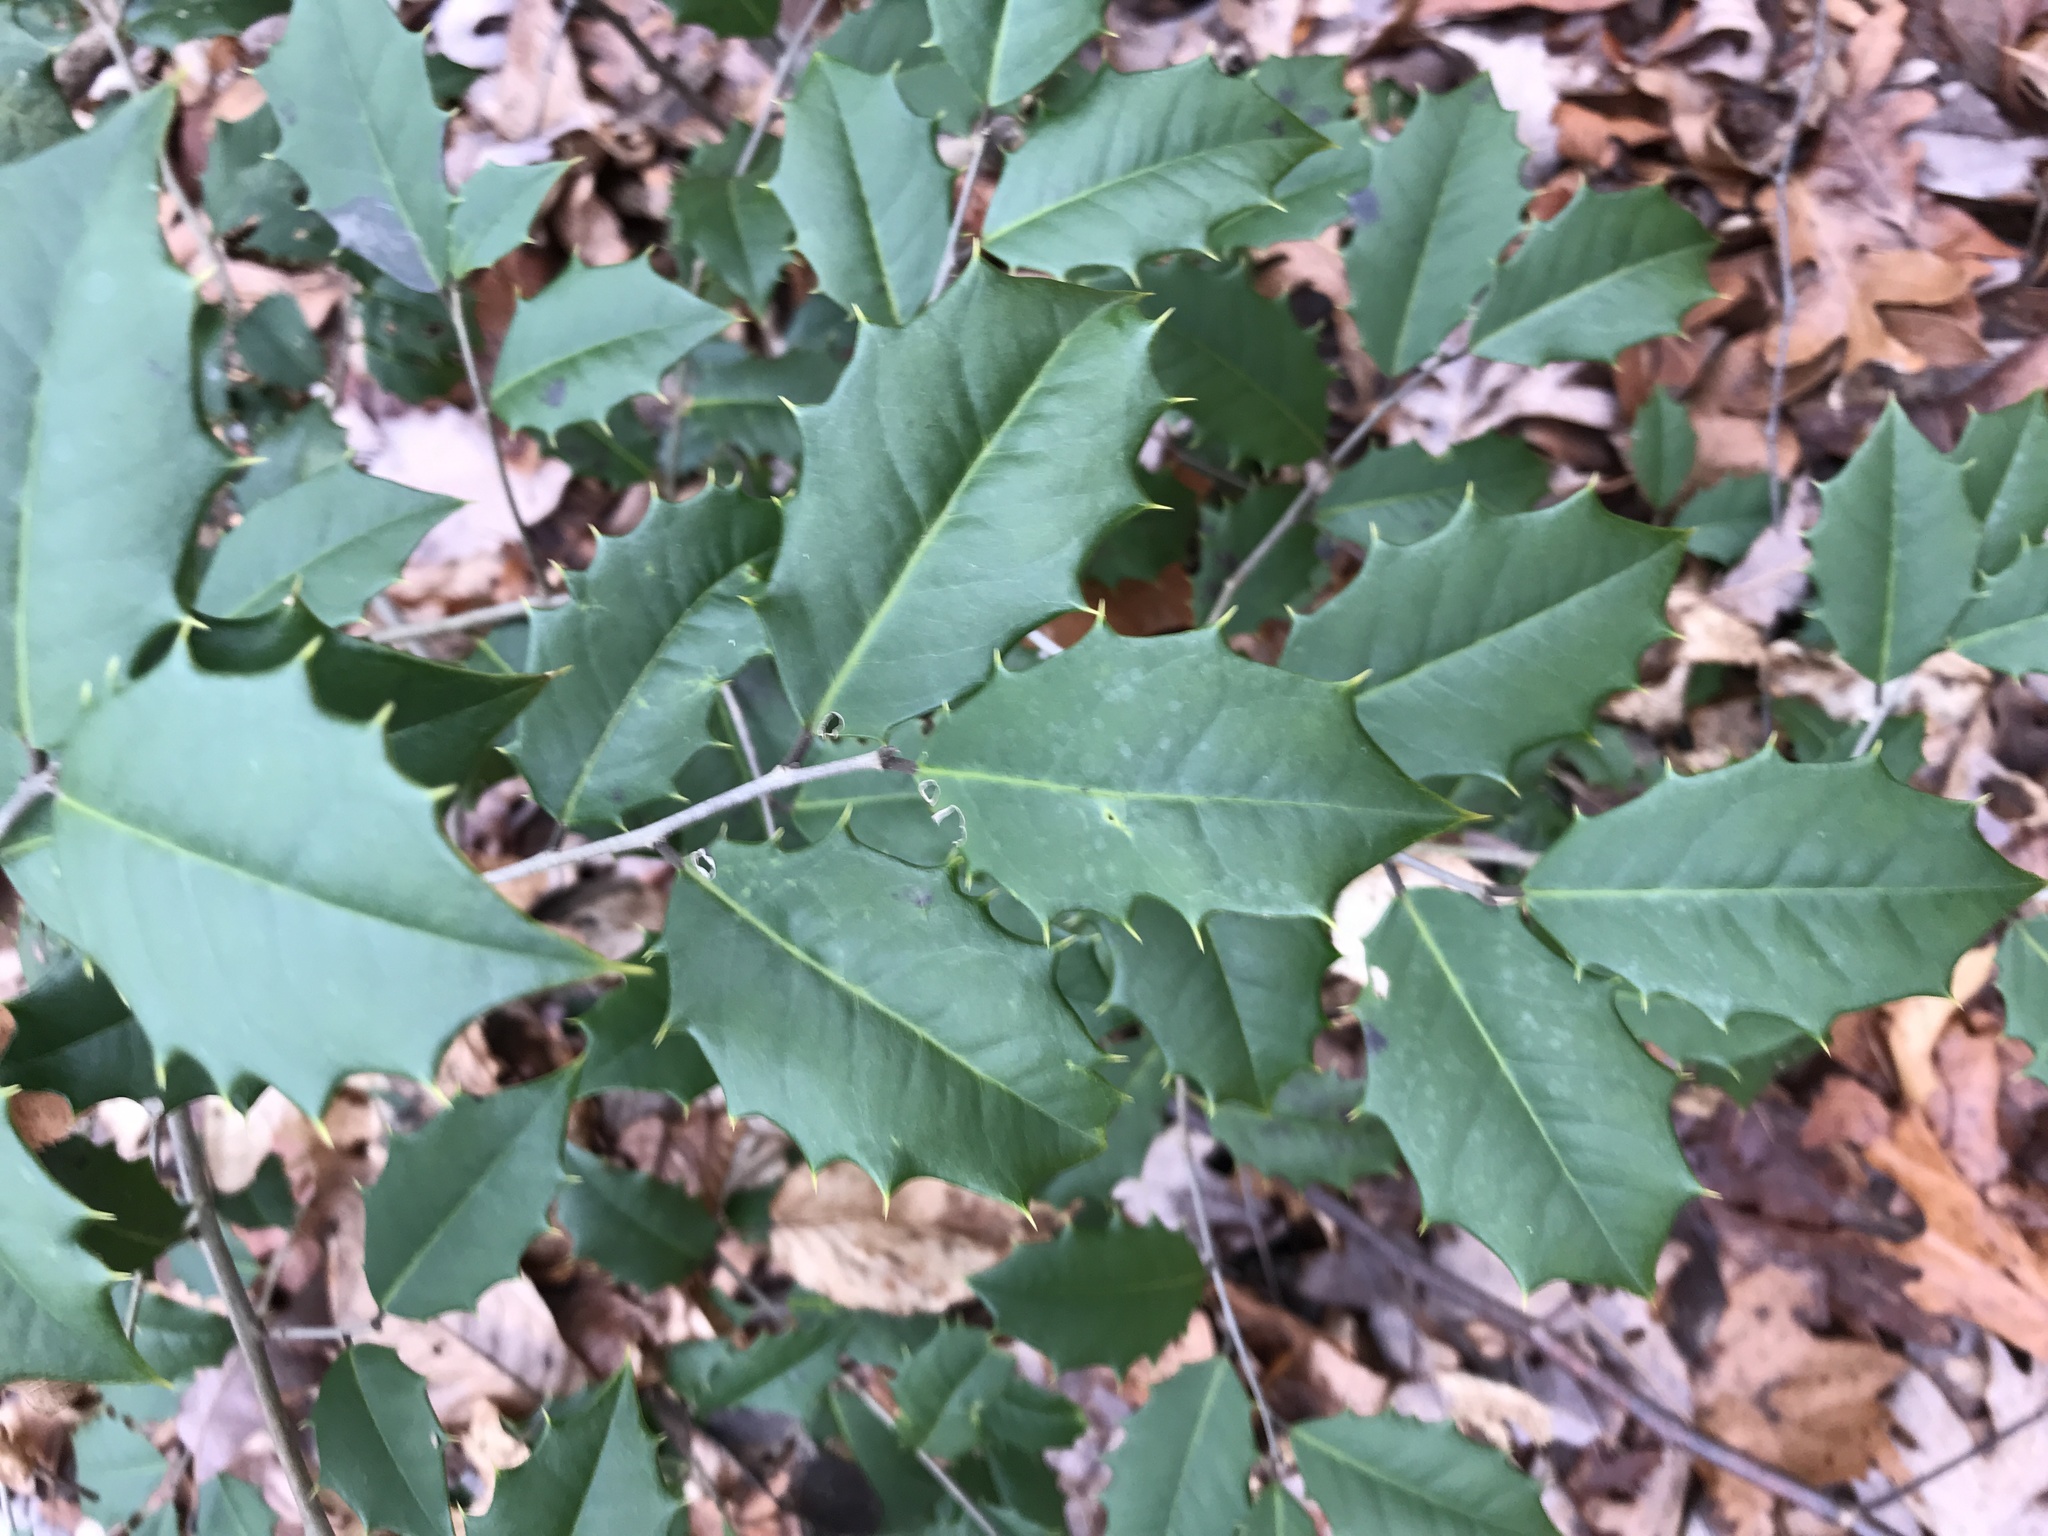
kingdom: Plantae
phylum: Tracheophyta
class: Magnoliopsida
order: Aquifoliales
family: Aquifoliaceae
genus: Ilex
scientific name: Ilex opaca
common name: American holly
